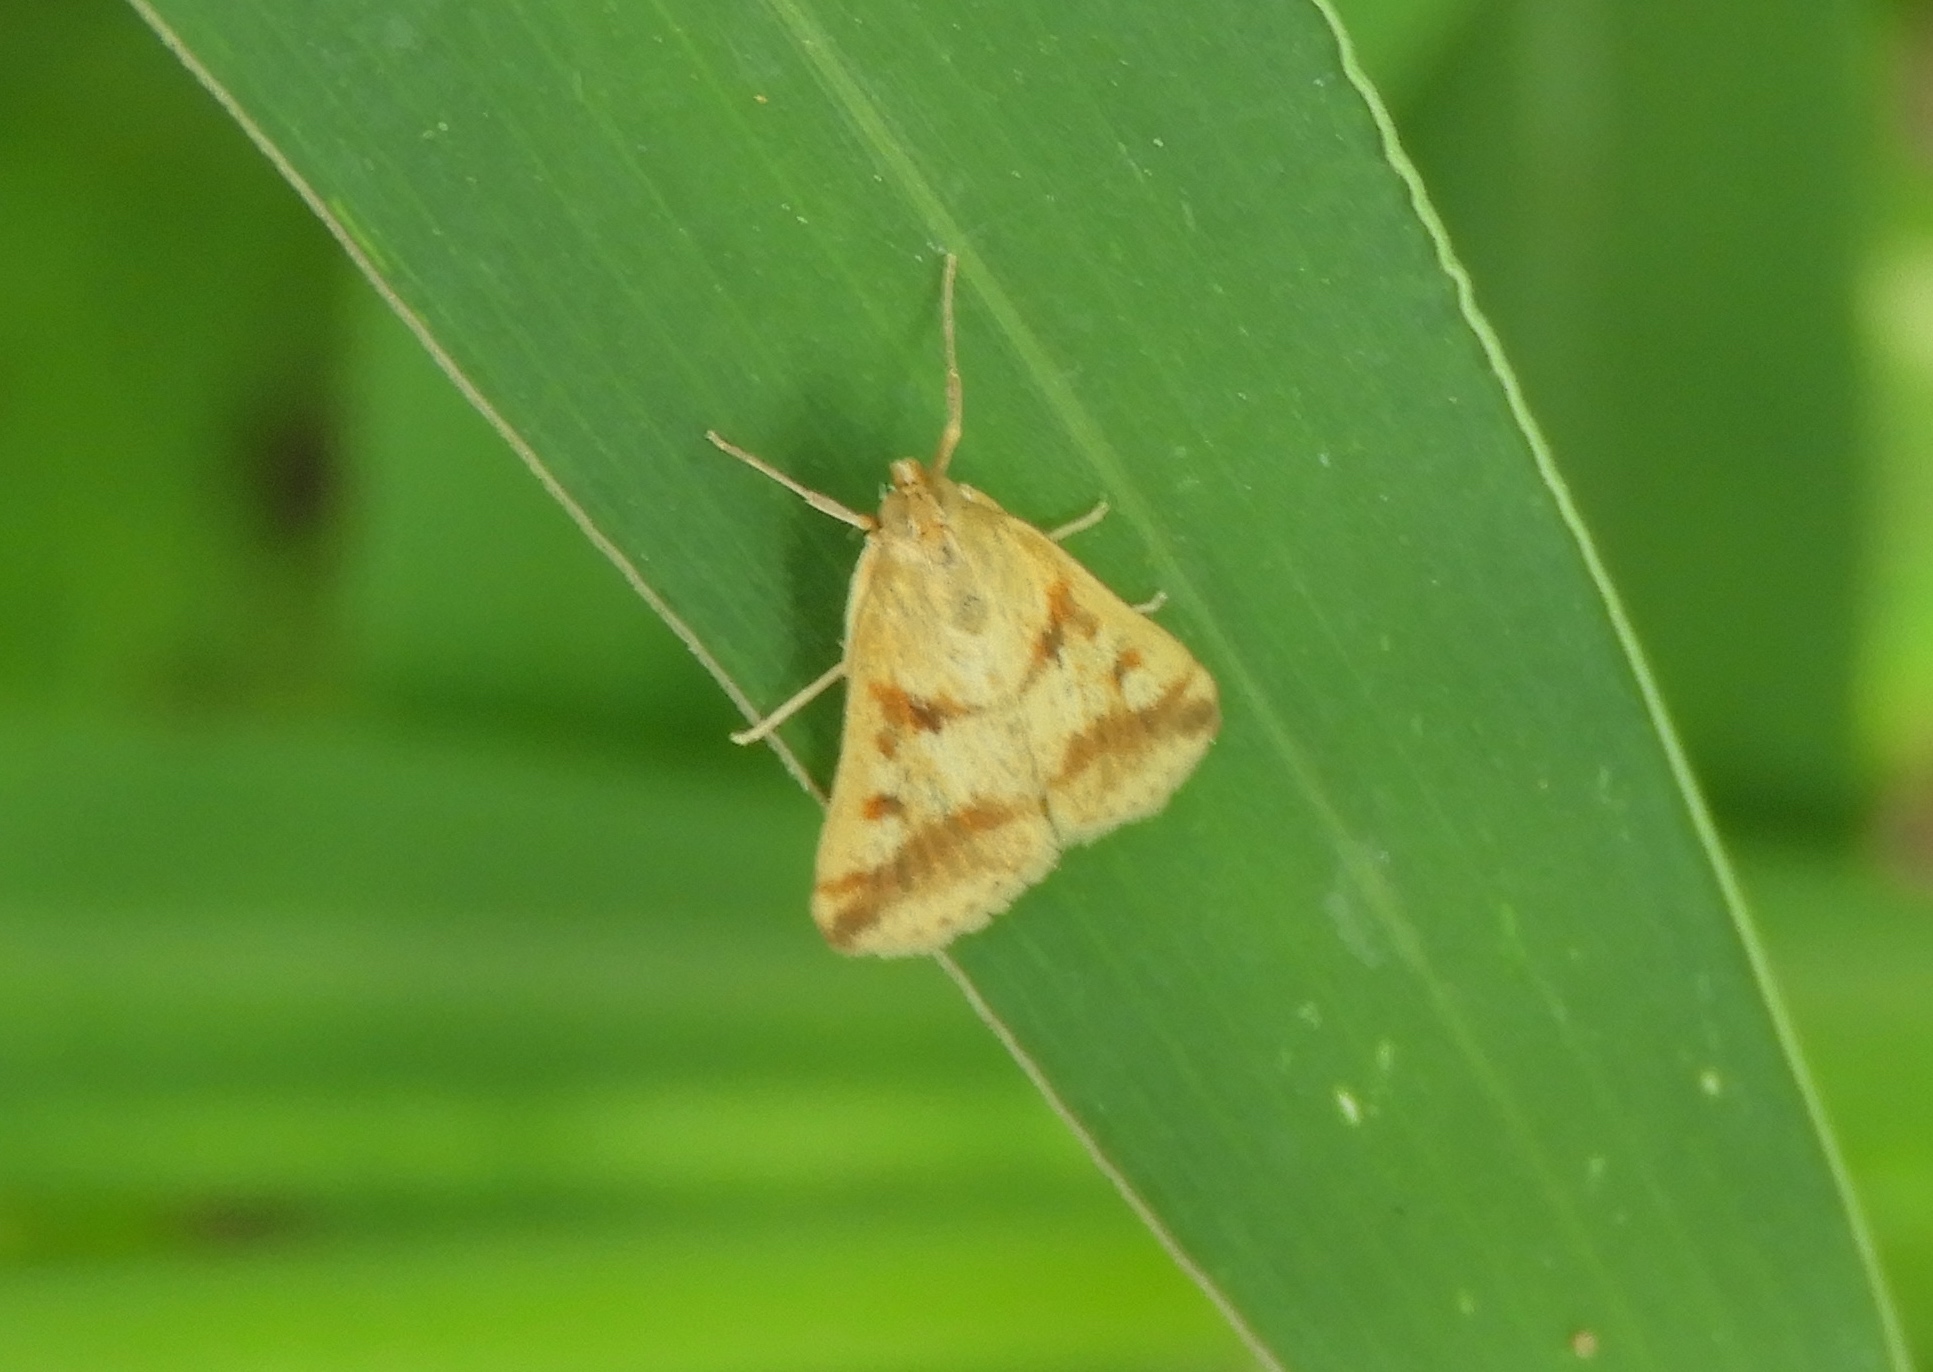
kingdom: Animalia
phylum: Arthropoda
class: Insecta
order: Lepidoptera
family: Crambidae
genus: Achyra
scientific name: Achyra bifidalis
